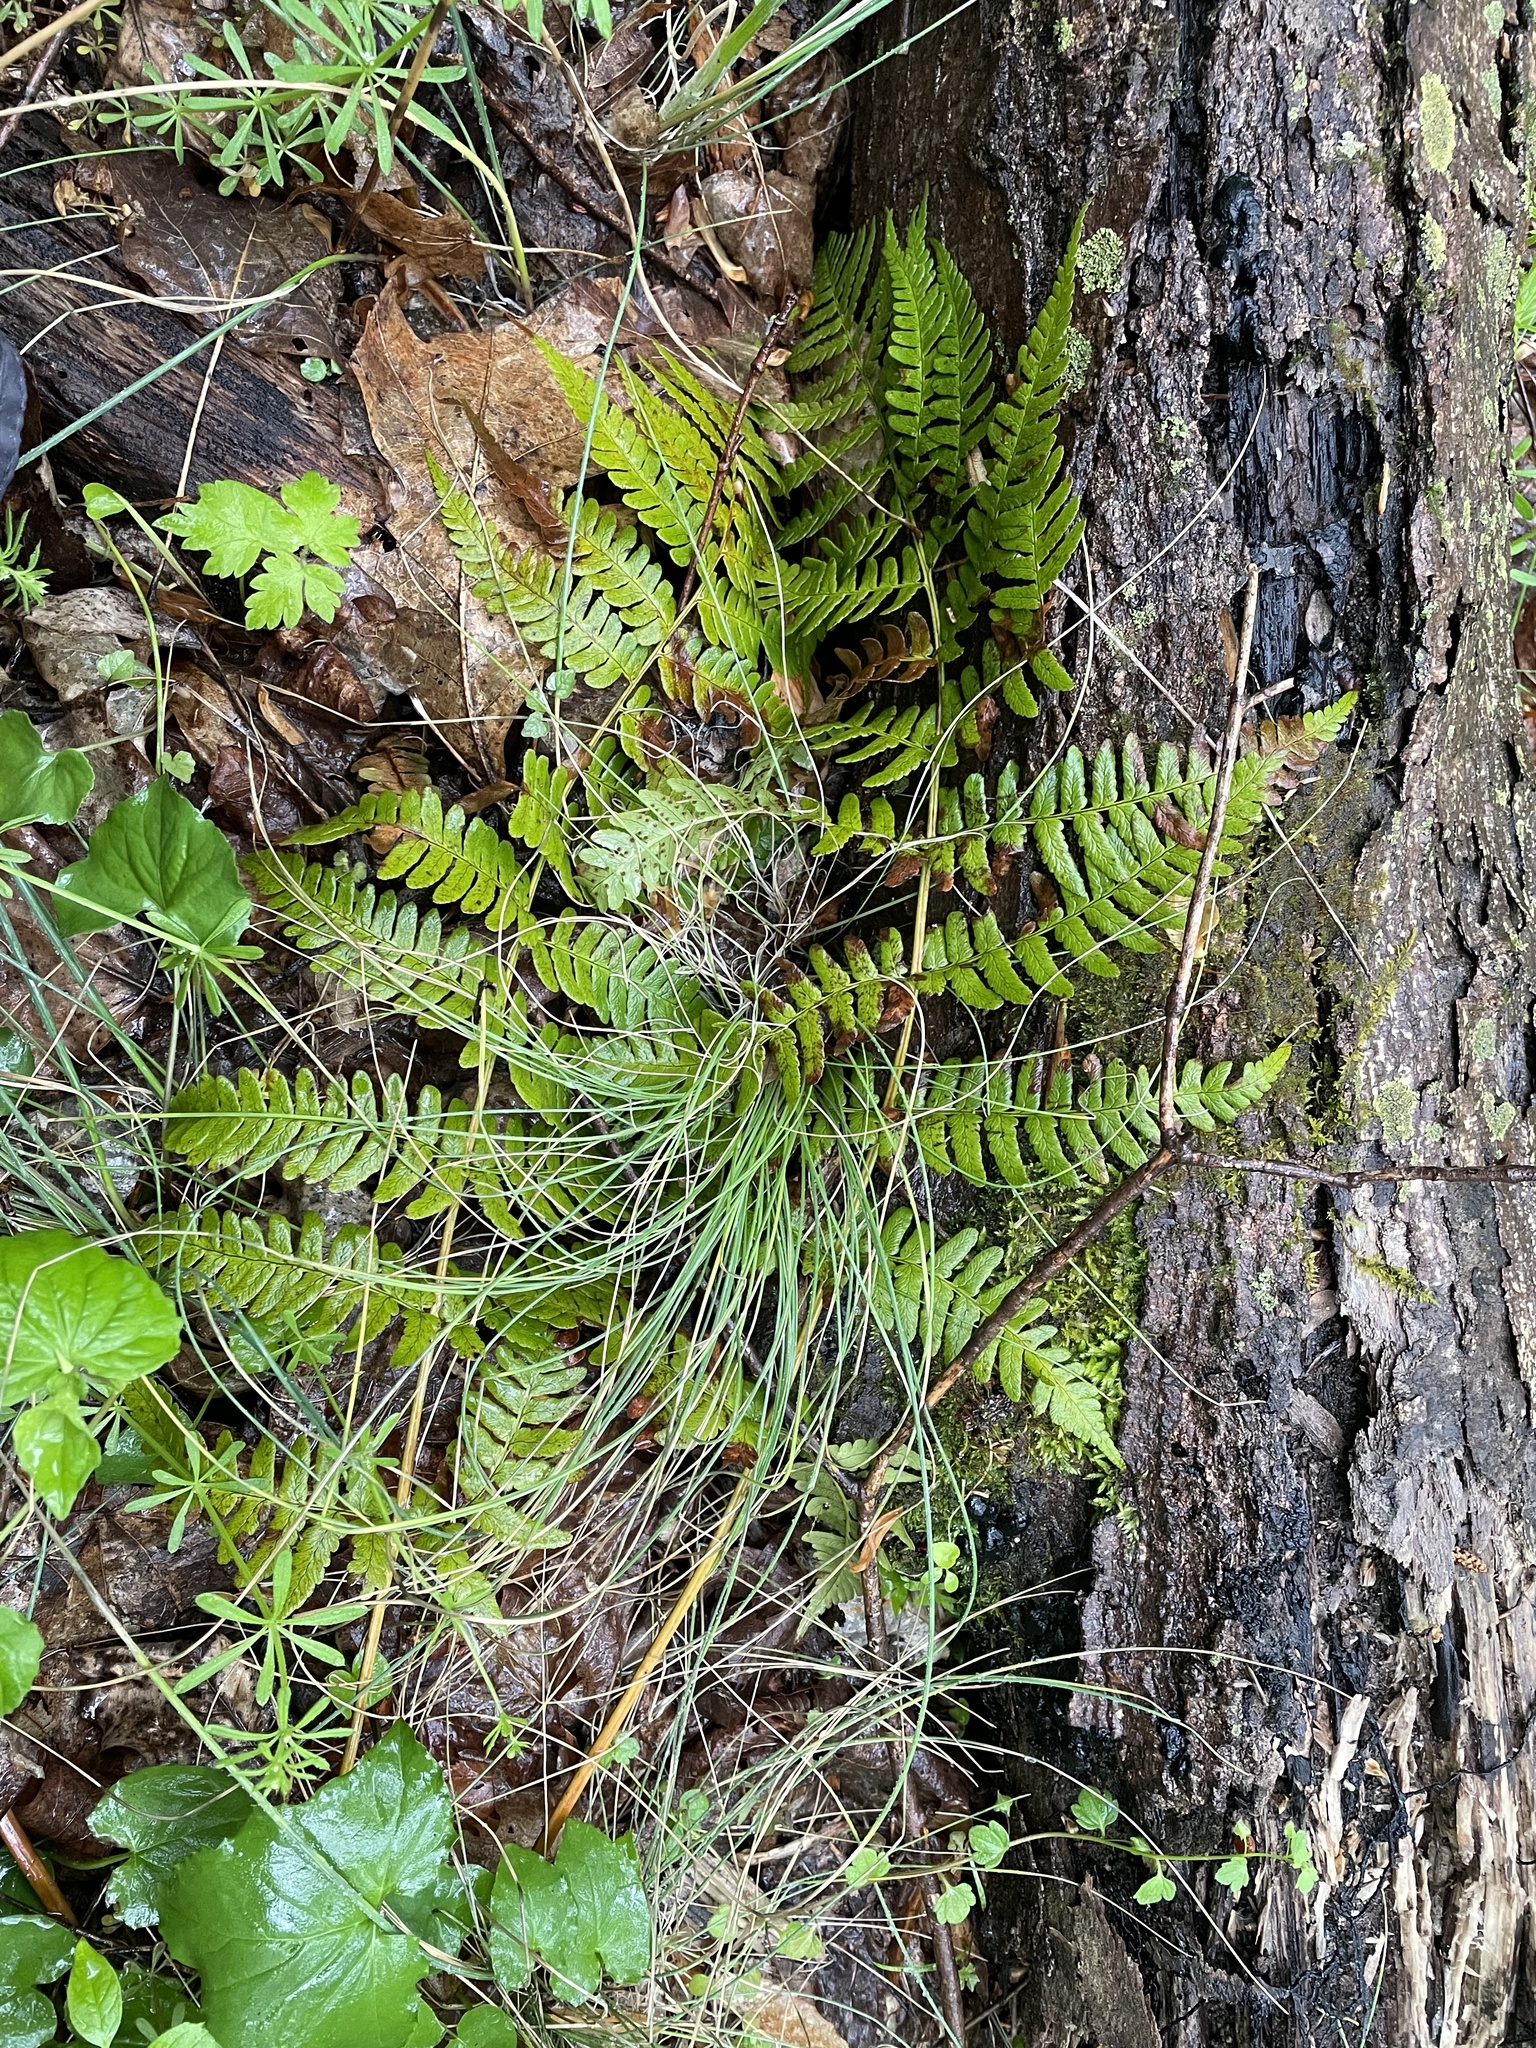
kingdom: Plantae
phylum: Tracheophyta
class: Polypodiopsida
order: Polypodiales
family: Dryopteridaceae
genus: Dryopteris
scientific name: Dryopteris marginalis
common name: Marginal wood fern
